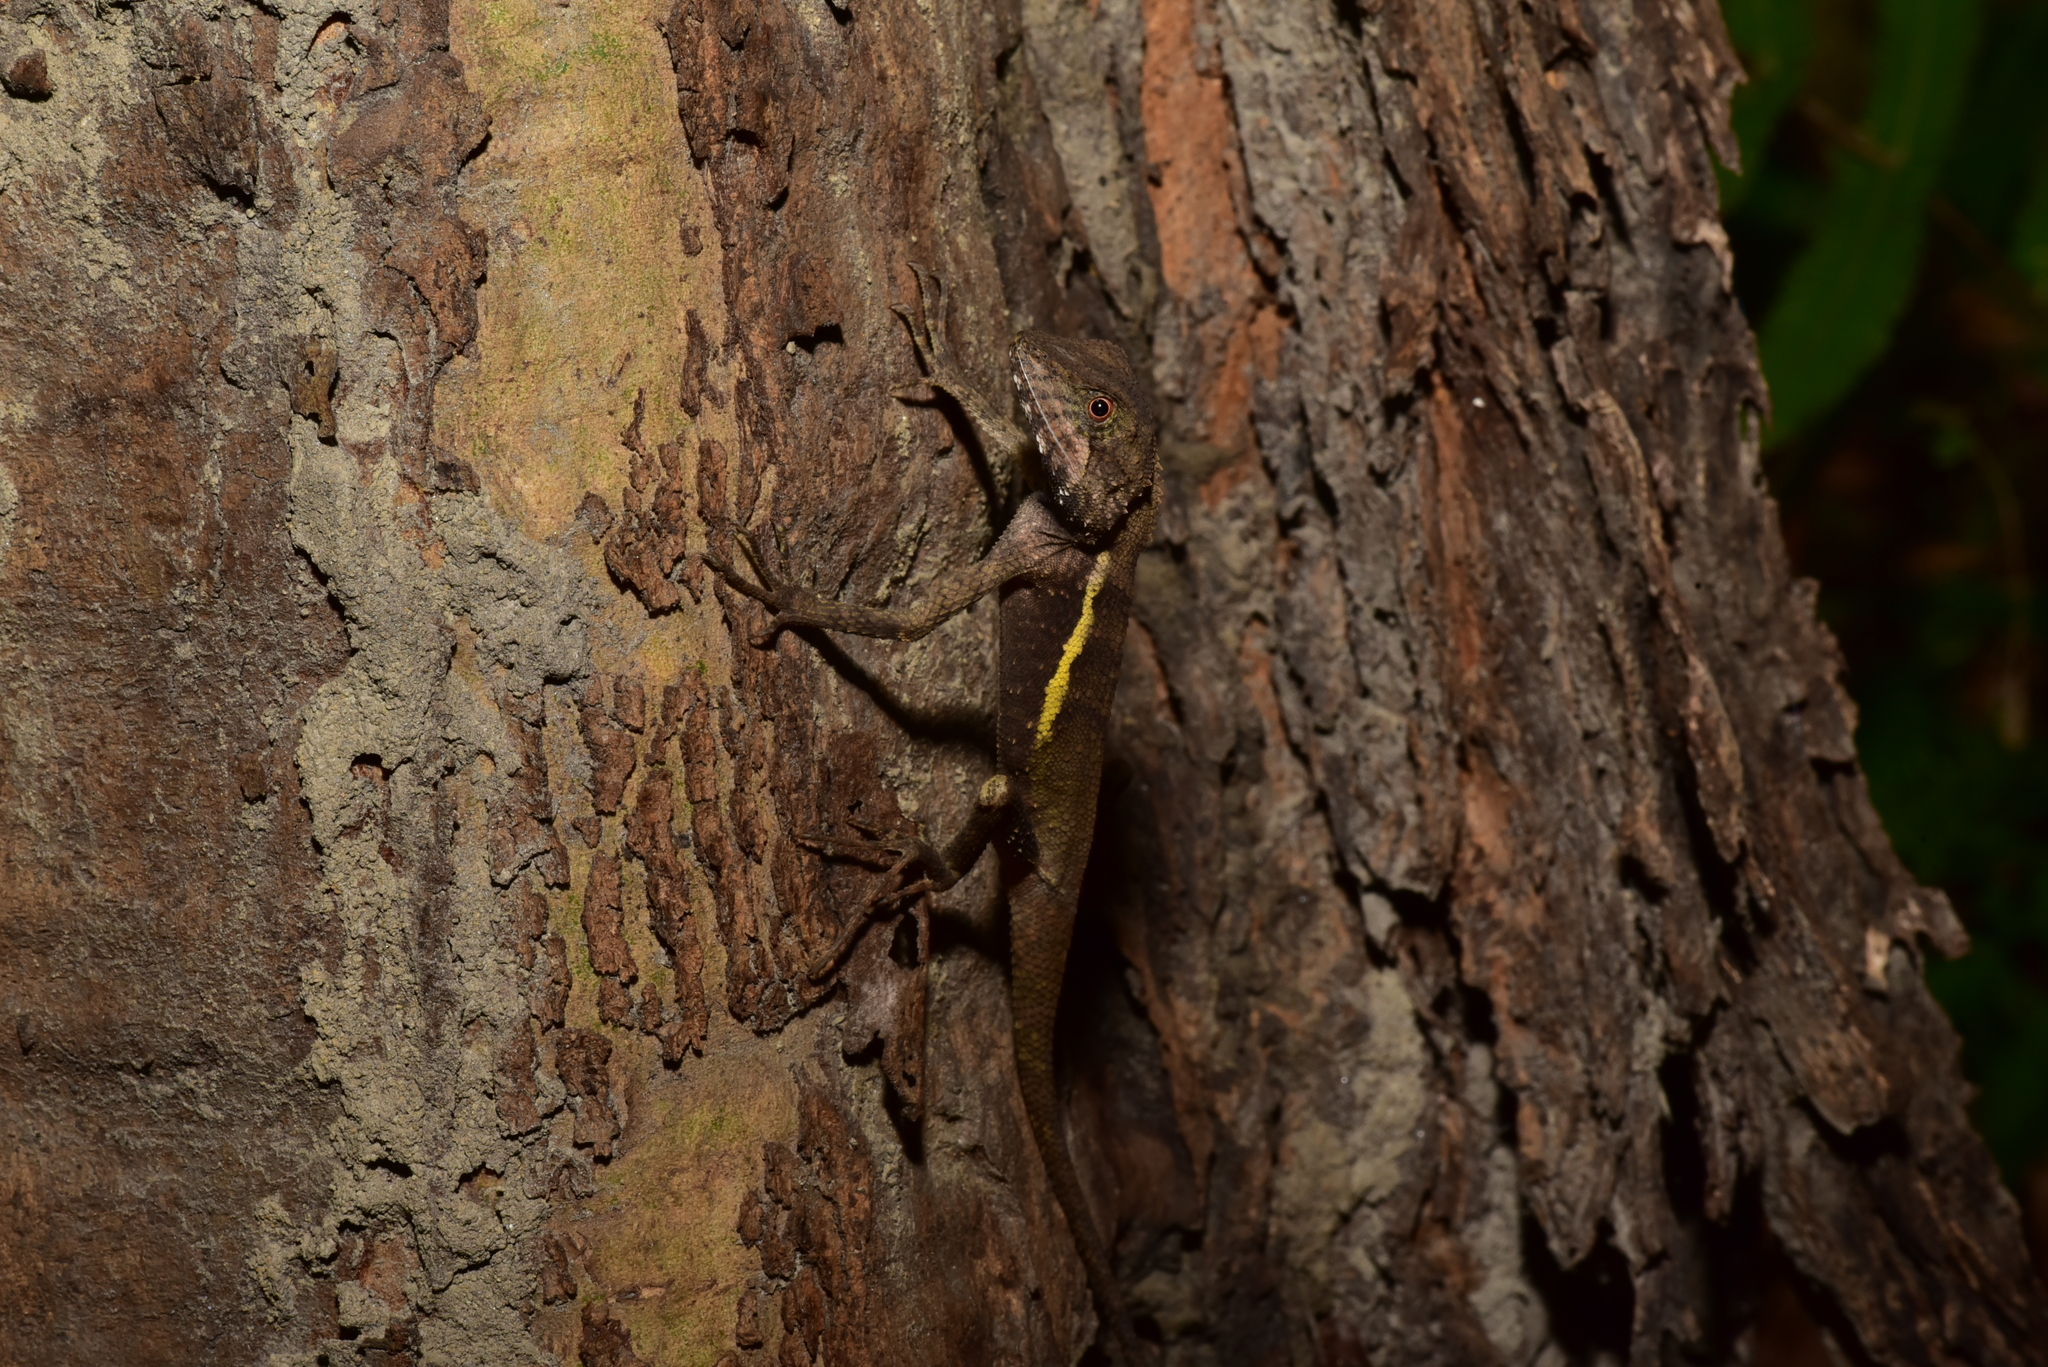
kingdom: Animalia
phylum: Chordata
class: Squamata
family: Agamidae
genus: Diploderma
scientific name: Diploderma swinhonis
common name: Taiwan japalure
